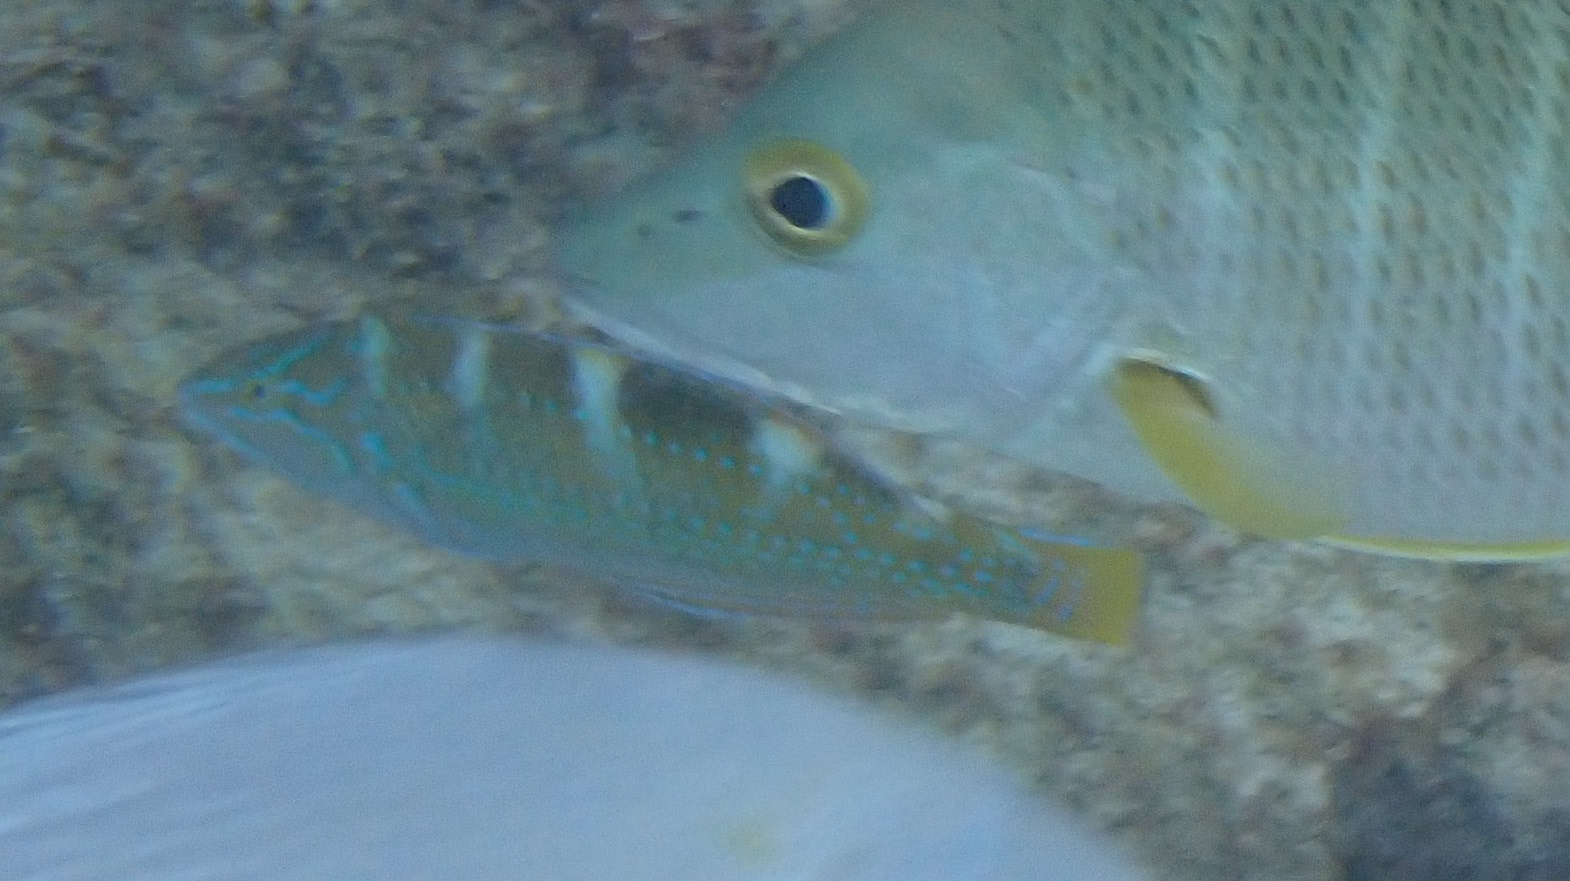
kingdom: Animalia
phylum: Chordata
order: Perciformes
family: Labridae
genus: Halichoeres
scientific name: Halichoeres radiatus
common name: Puddingwife
